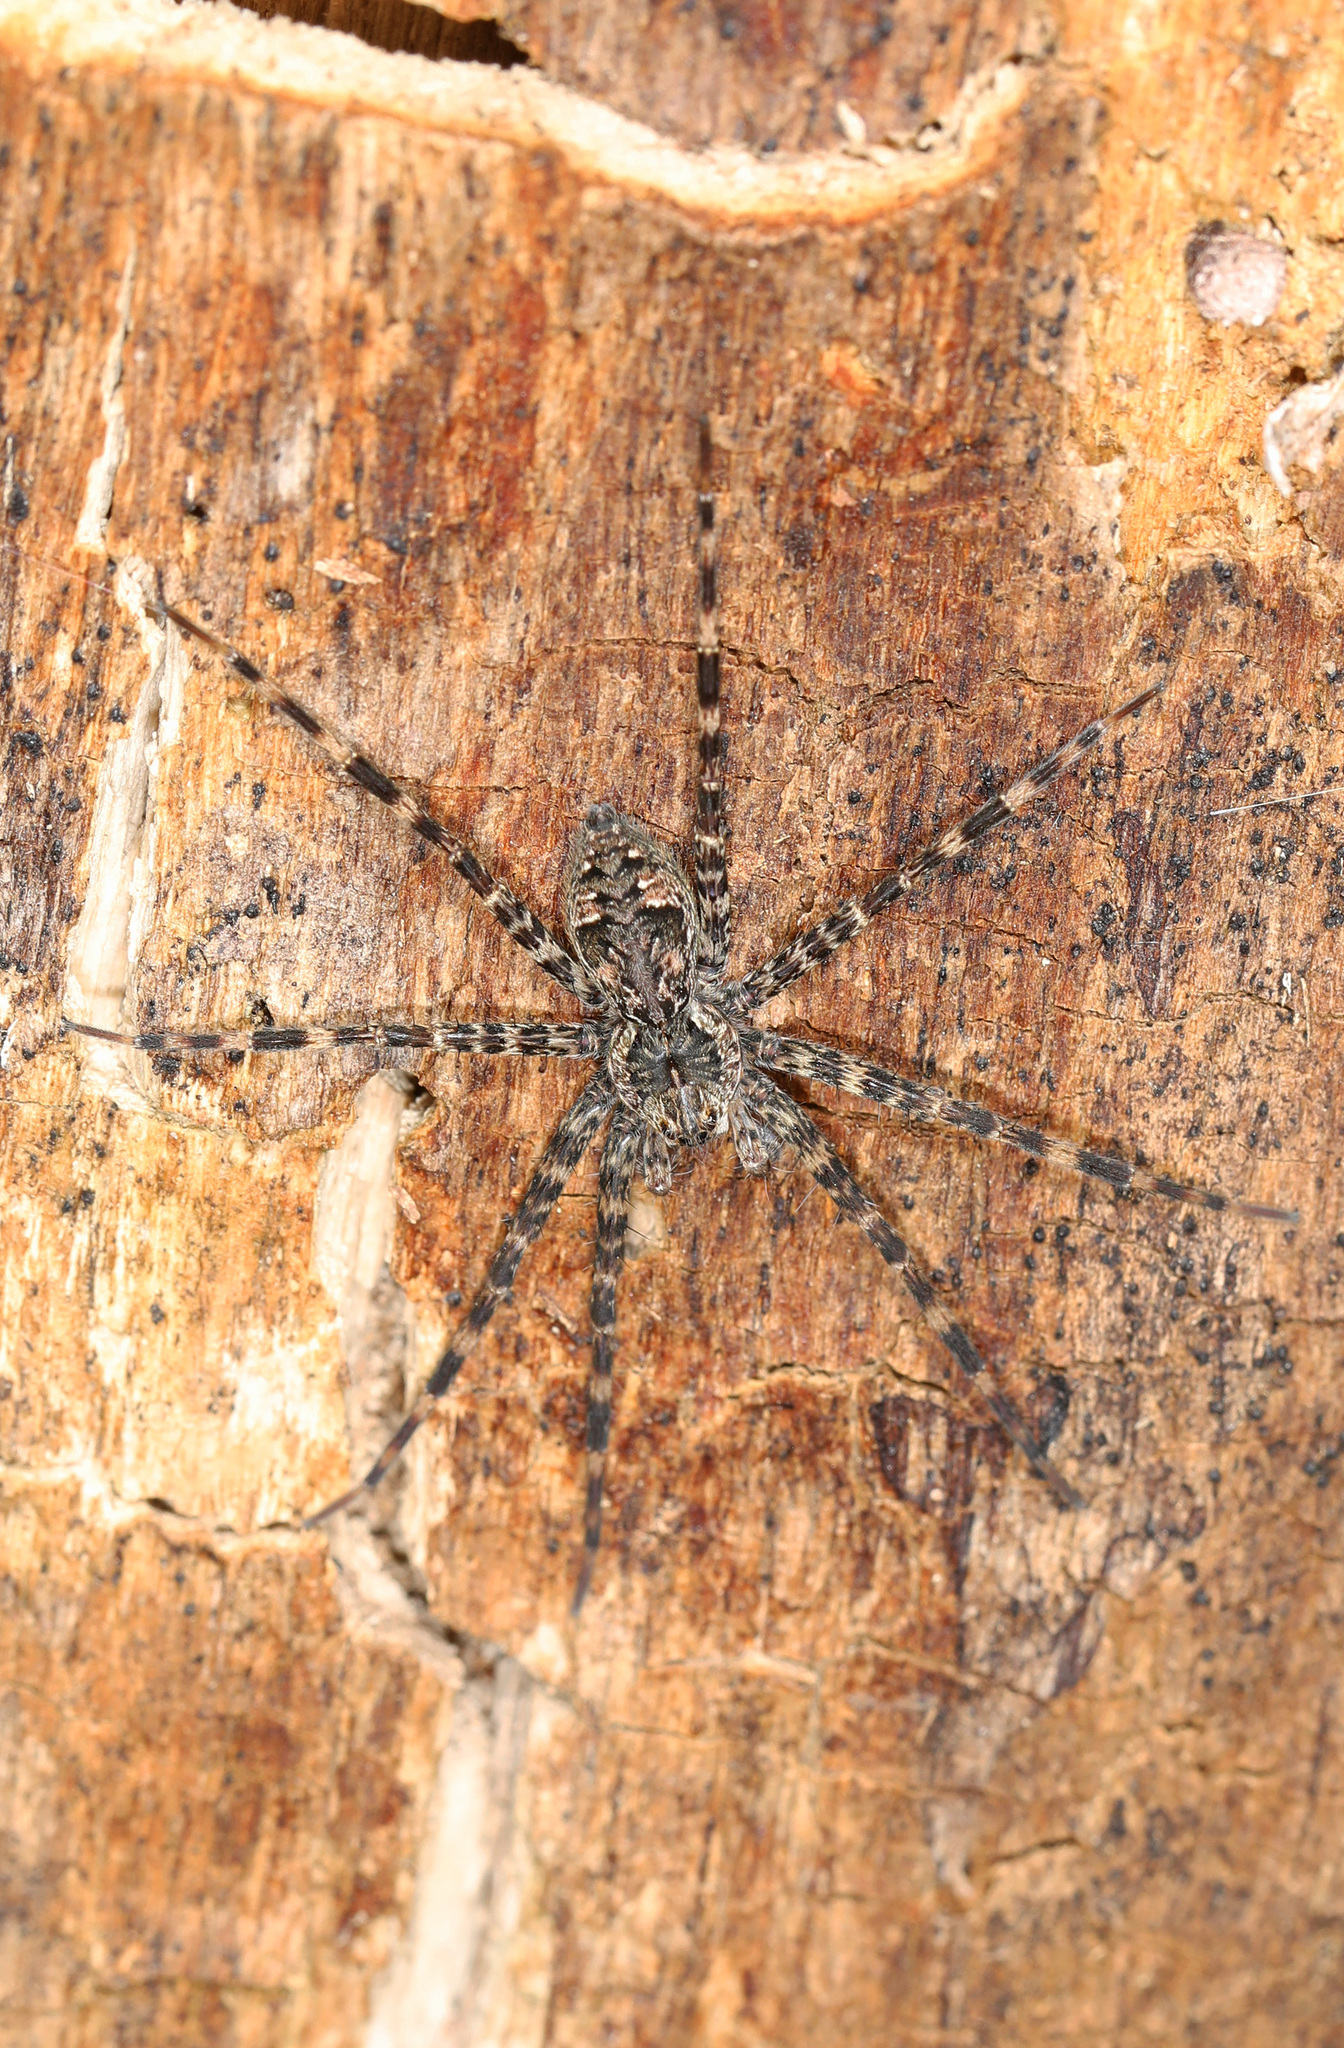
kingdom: Animalia
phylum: Arthropoda
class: Arachnida
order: Araneae
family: Pisauridae
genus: Dolomedes
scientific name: Dolomedes tenebrosus
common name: Dark fishing spider
